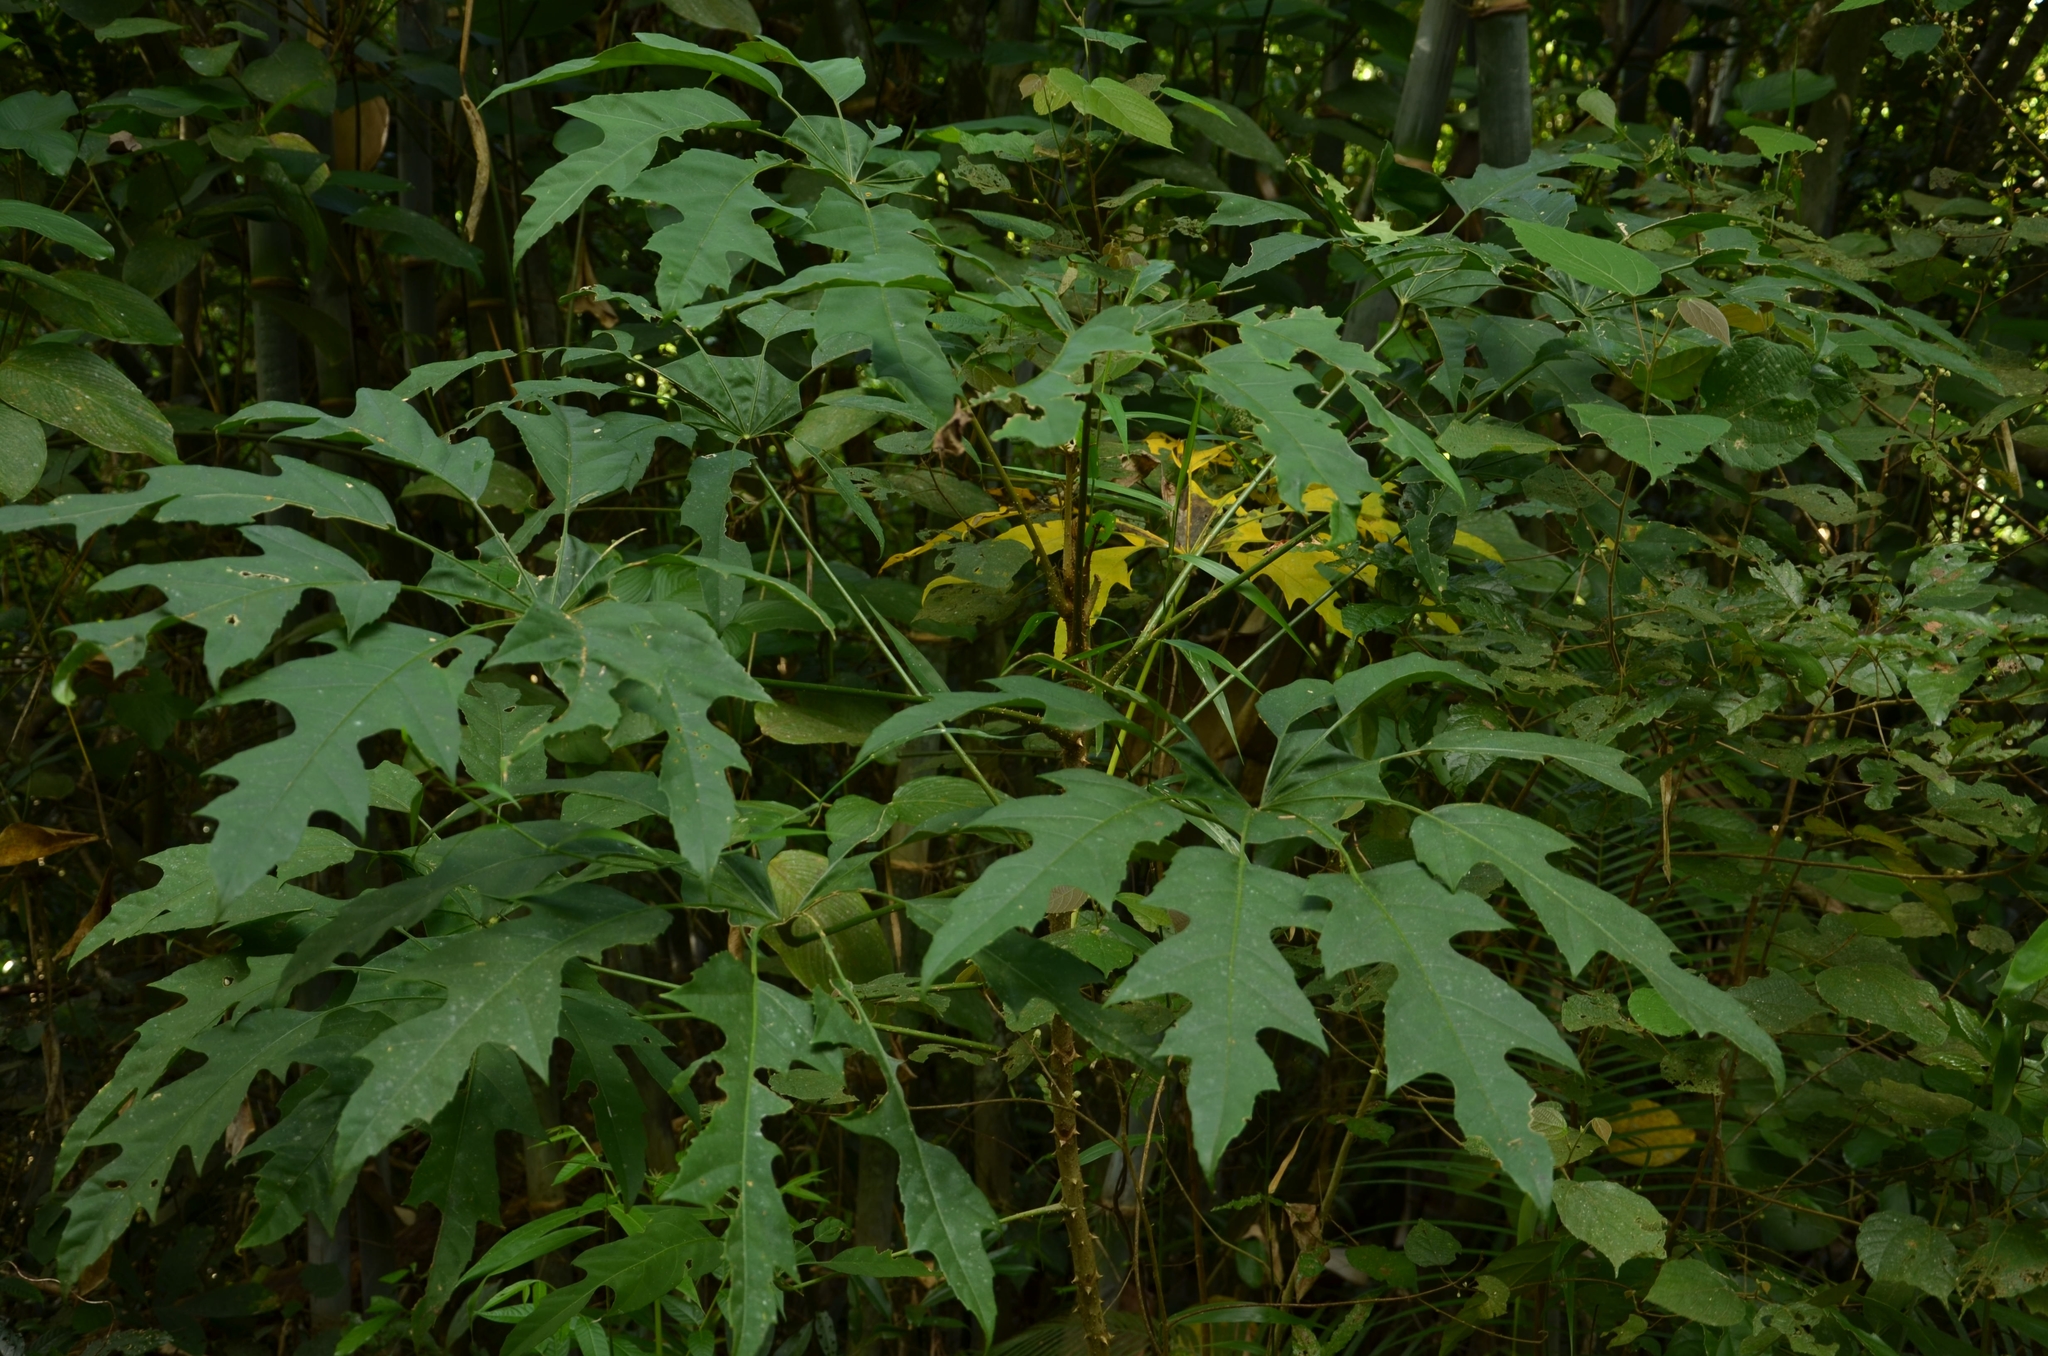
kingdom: Plantae
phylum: Tracheophyta
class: Magnoliopsida
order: Apiales
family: Araliaceae
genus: Trevesia
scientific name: Trevesia palmata
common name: Snowflakeplant
